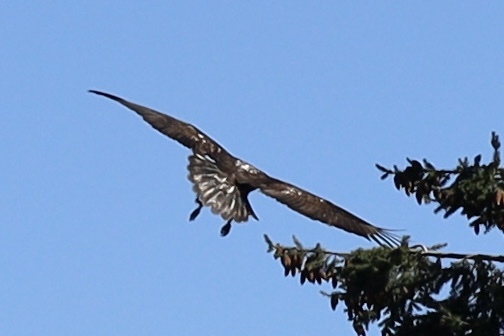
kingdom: Animalia
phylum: Chordata
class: Aves
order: Accipitriformes
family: Accipitridae
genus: Haliaeetus
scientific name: Haliaeetus leucocephalus
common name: Bald eagle
